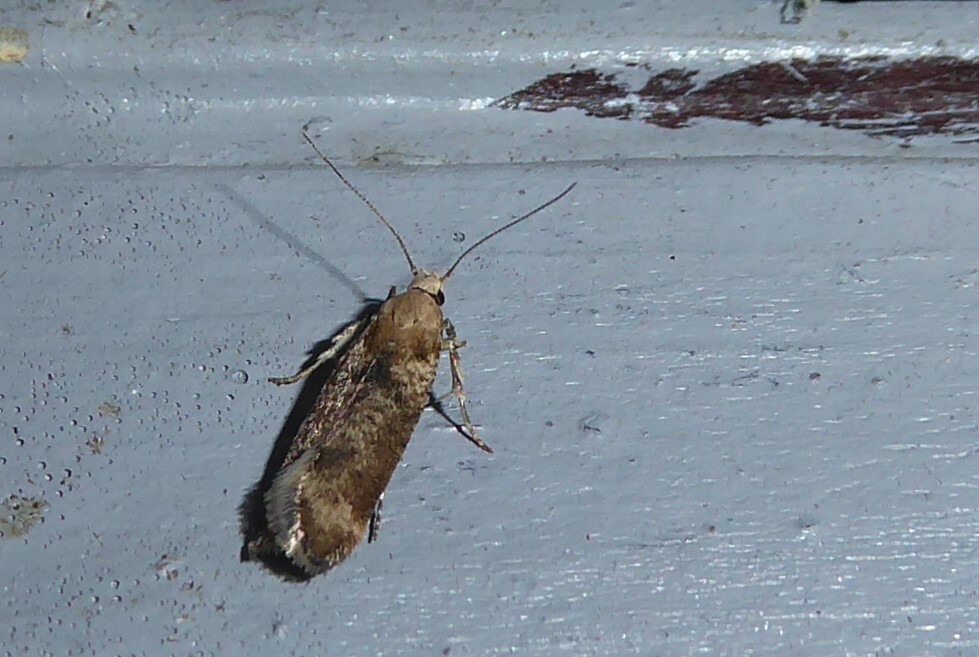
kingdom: Animalia
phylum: Arthropoda
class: Insecta
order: Lepidoptera
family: Gelechiidae
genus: Anisoplaca
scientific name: Anisoplaca acrodactyla
